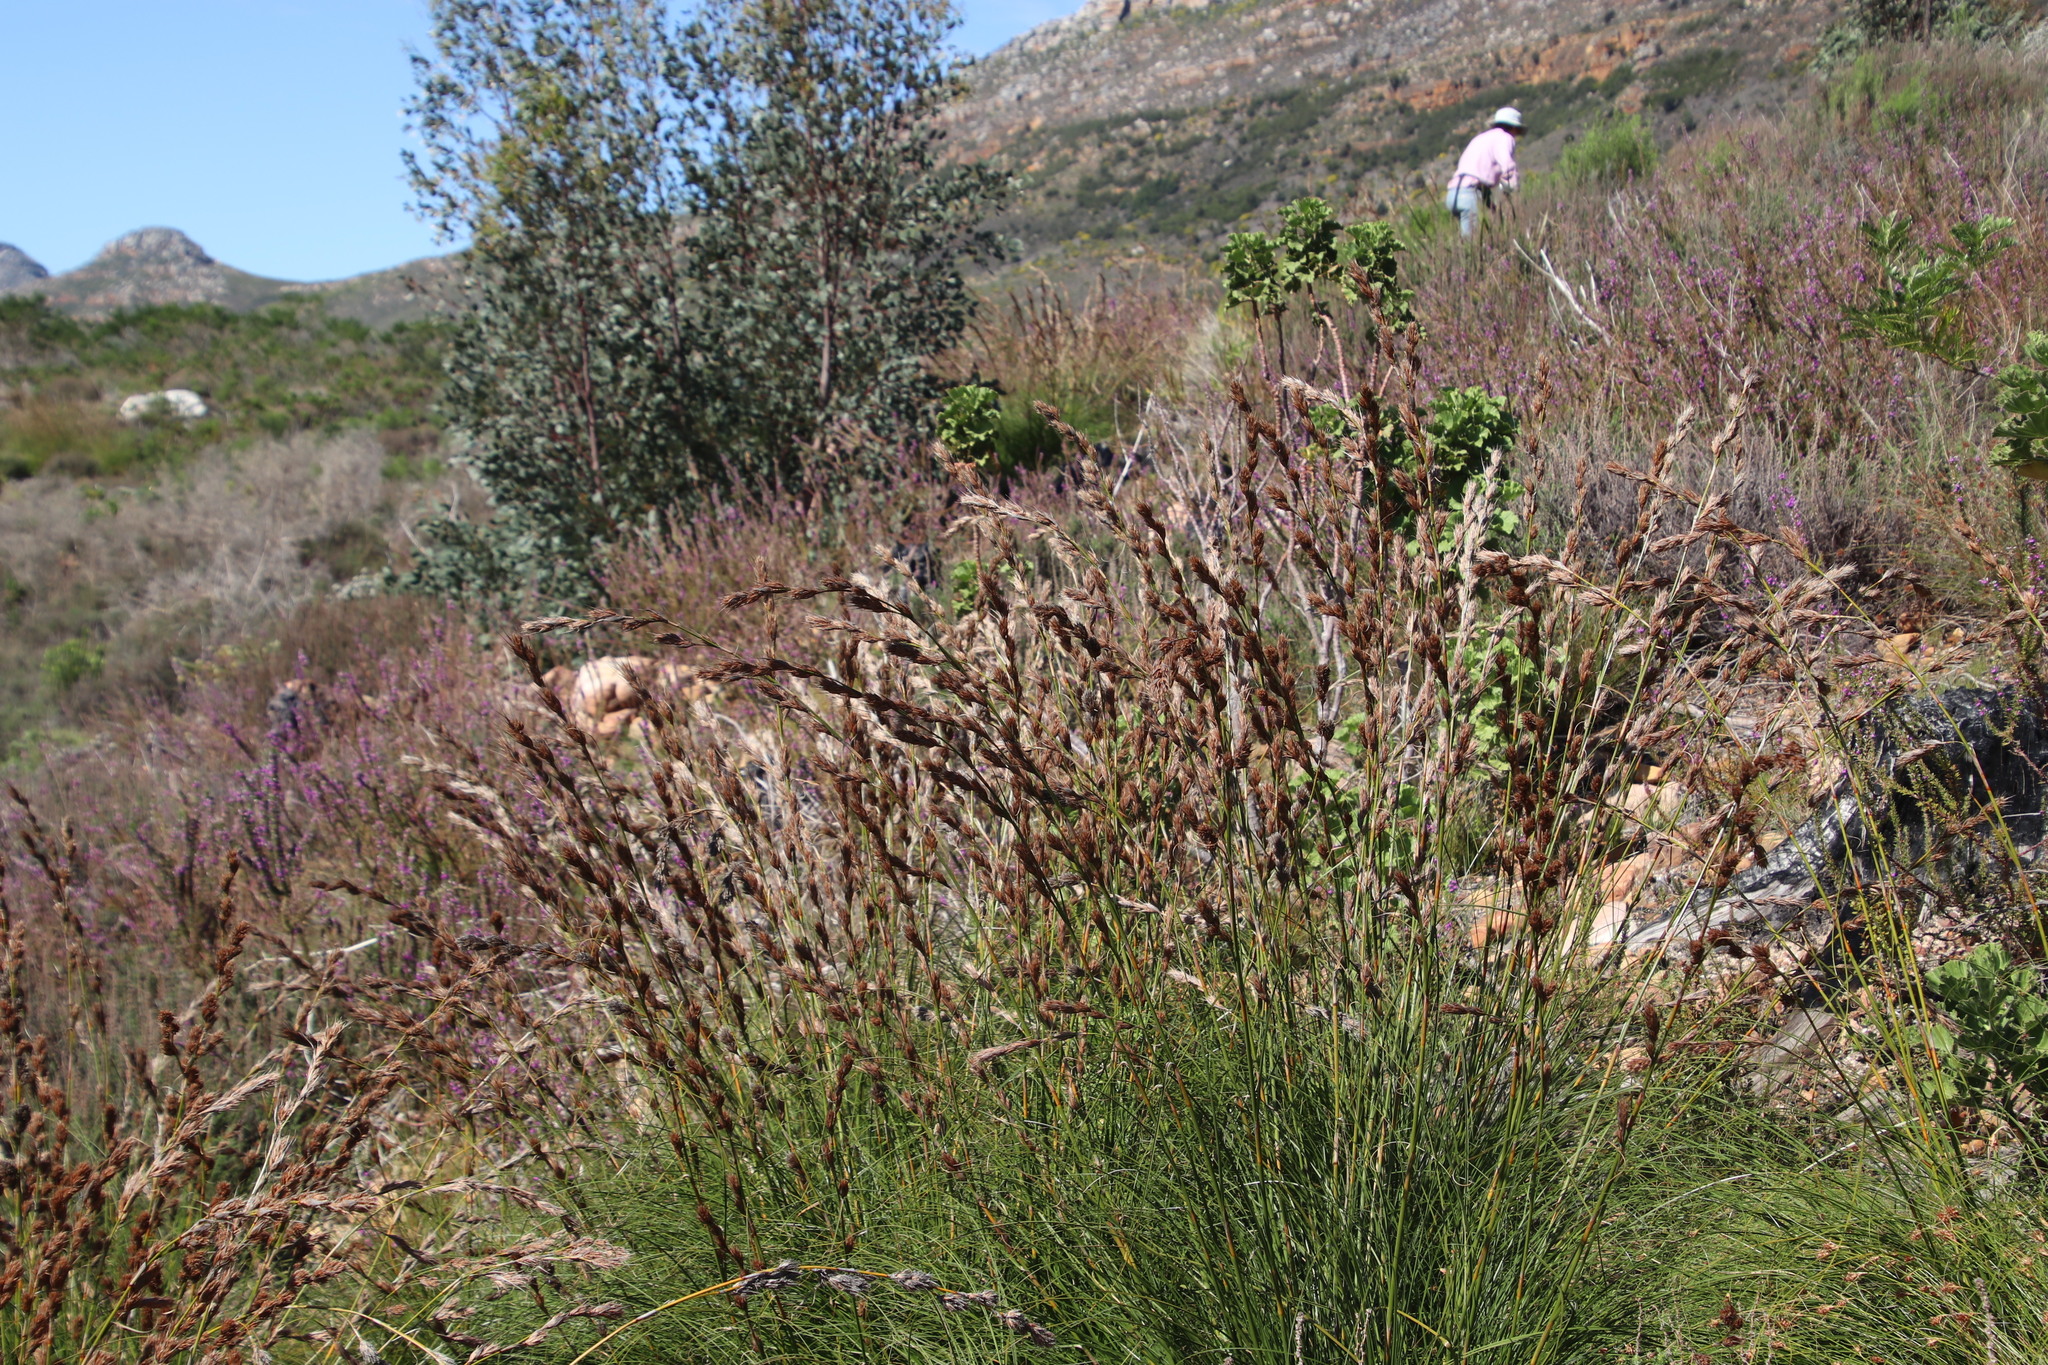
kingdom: Plantae
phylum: Tracheophyta
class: Liliopsida
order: Poales
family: Cyperaceae
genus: Tetraria
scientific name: Tetraria bromoides
